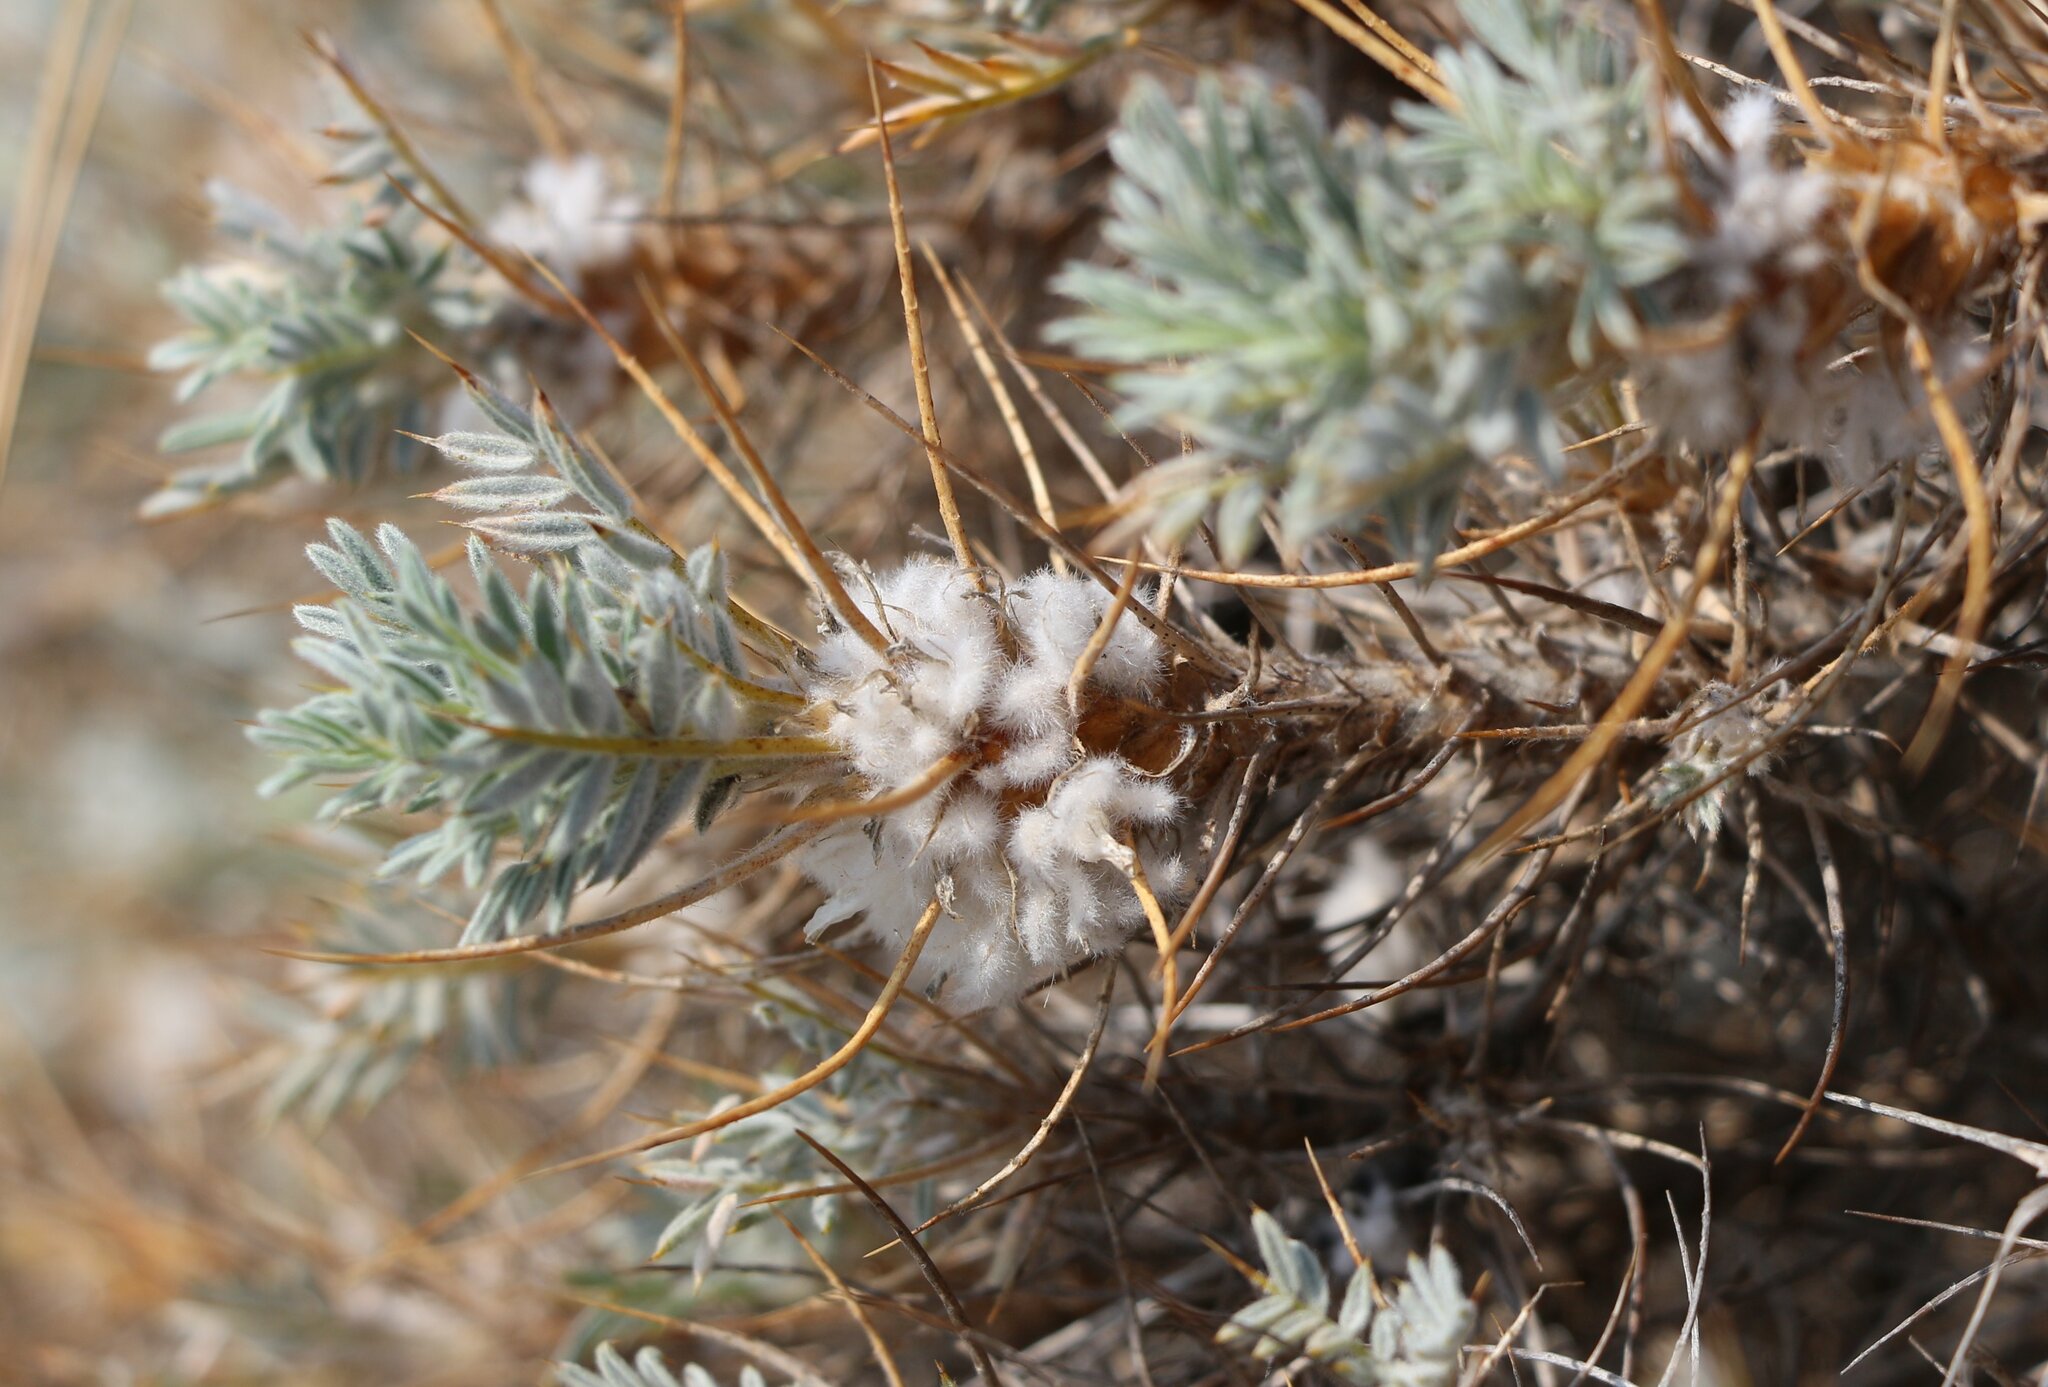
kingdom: Plantae
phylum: Tracheophyta
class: Magnoliopsida
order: Fabales
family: Fabaceae
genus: Astragalus
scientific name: Astragalus arnacanthoides
